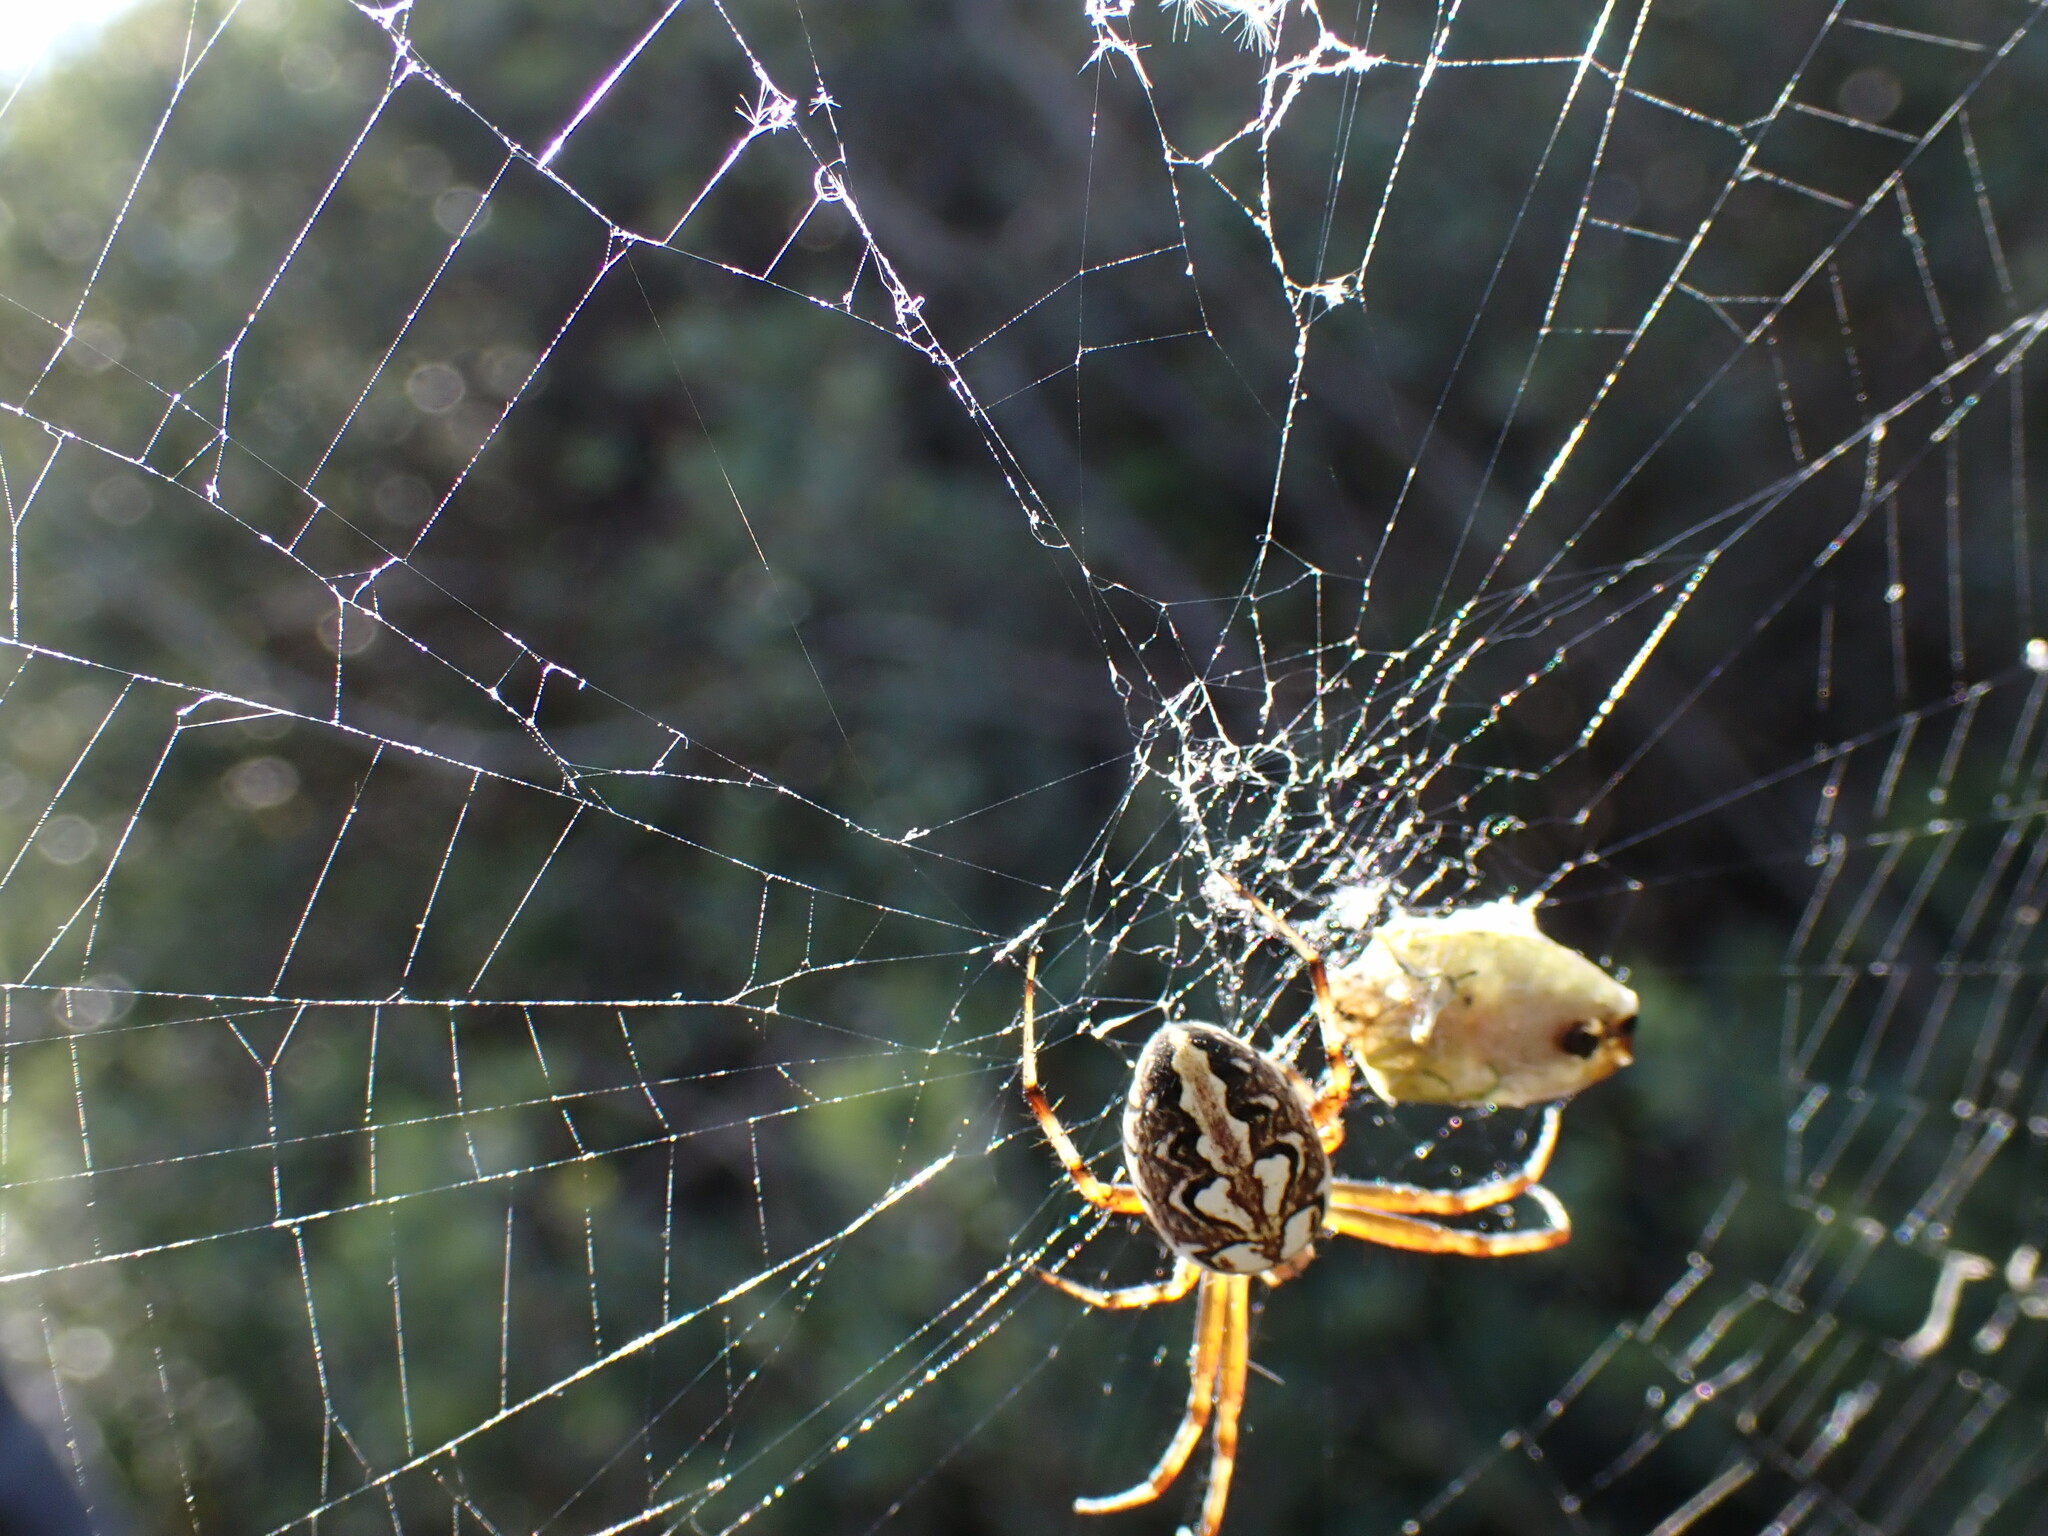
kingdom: Animalia
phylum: Arthropoda
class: Arachnida
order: Araneae
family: Araneidae
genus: Neoscona
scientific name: Neoscona adianta
